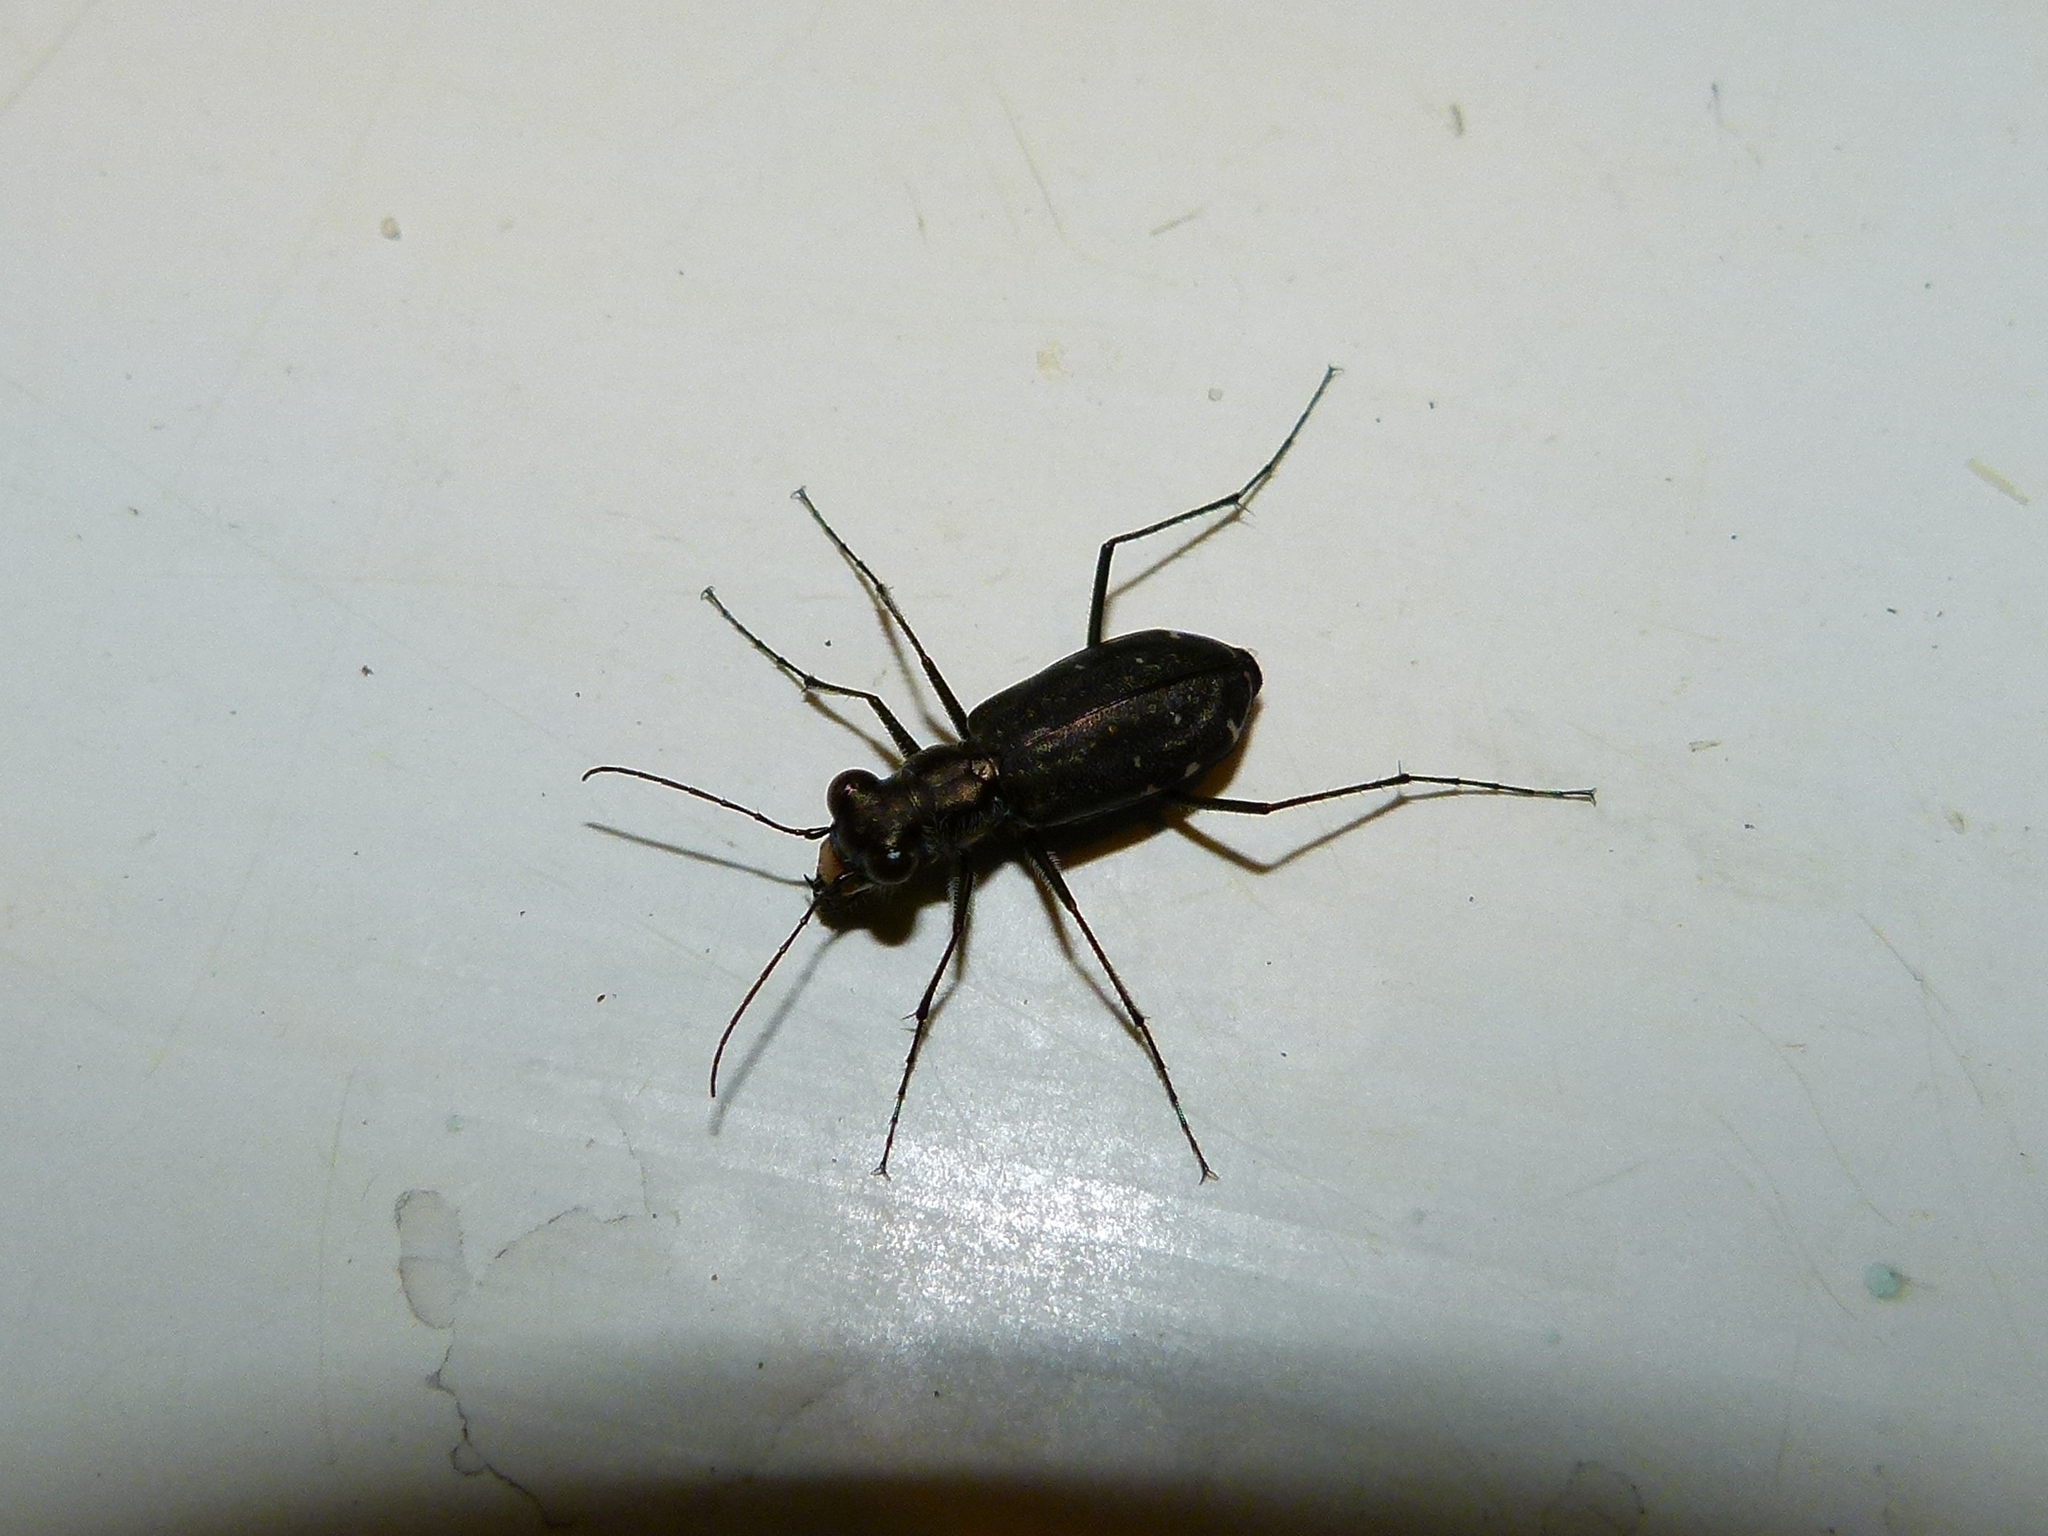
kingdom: Animalia
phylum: Arthropoda
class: Insecta
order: Coleoptera
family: Carabidae
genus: Cicindela
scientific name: Cicindela punctulata
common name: Punctured tiger beetle
